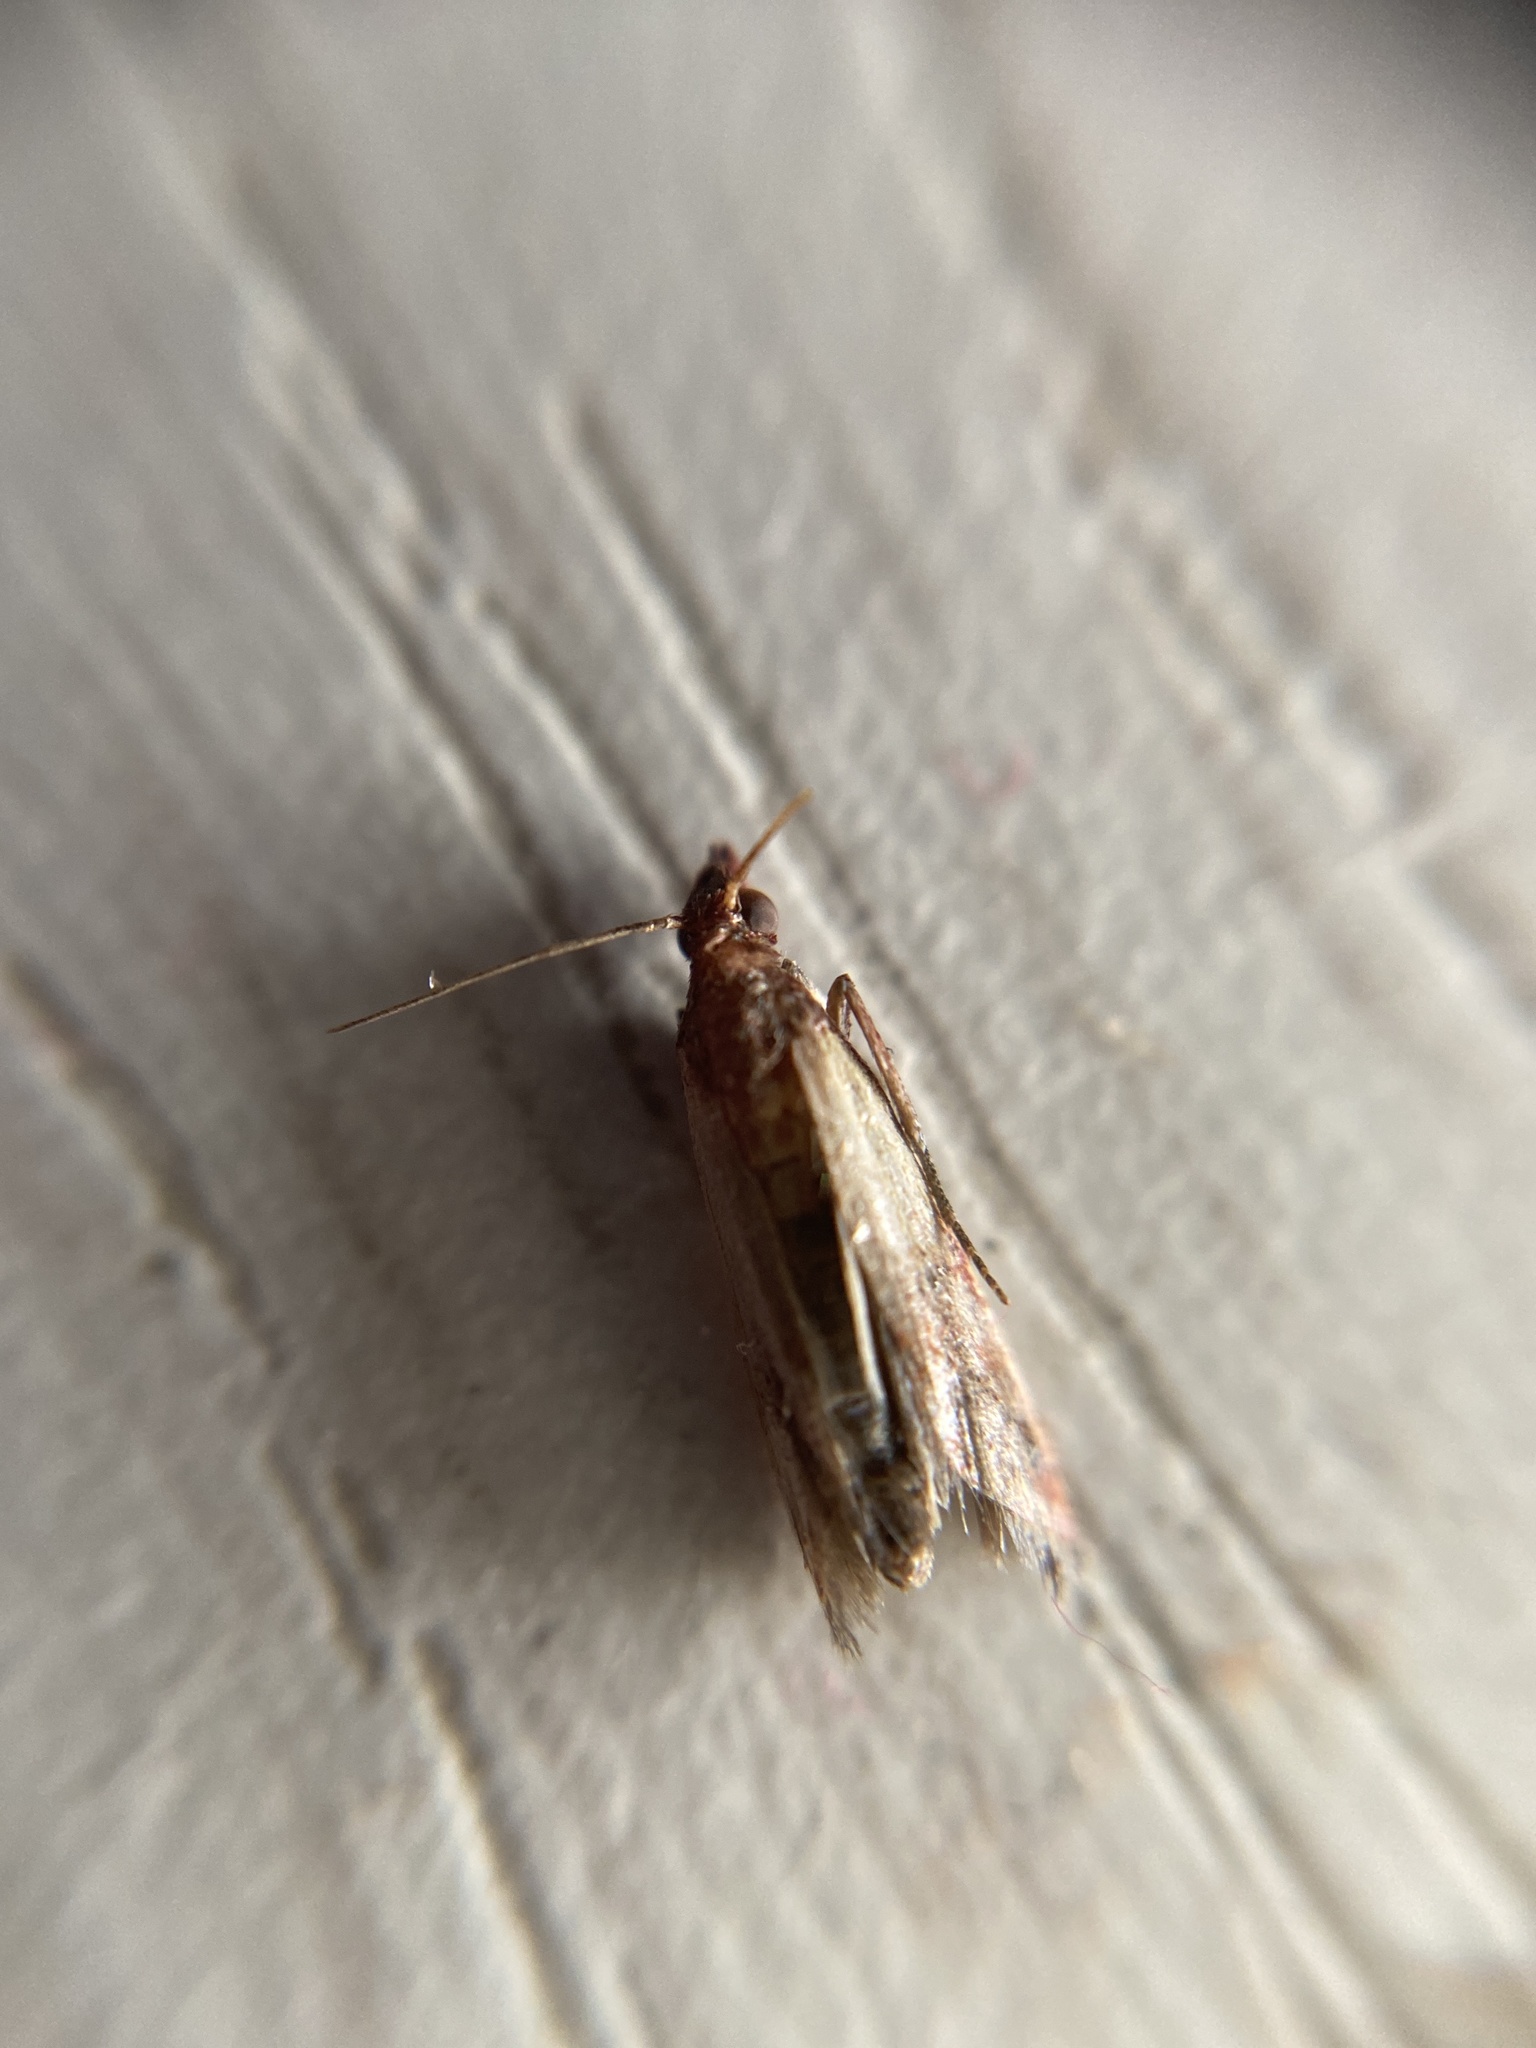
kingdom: Animalia
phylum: Arthropoda
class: Insecta
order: Lepidoptera
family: Pyralidae
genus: Plodia
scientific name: Plodia interpunctella
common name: Indian meal moth
